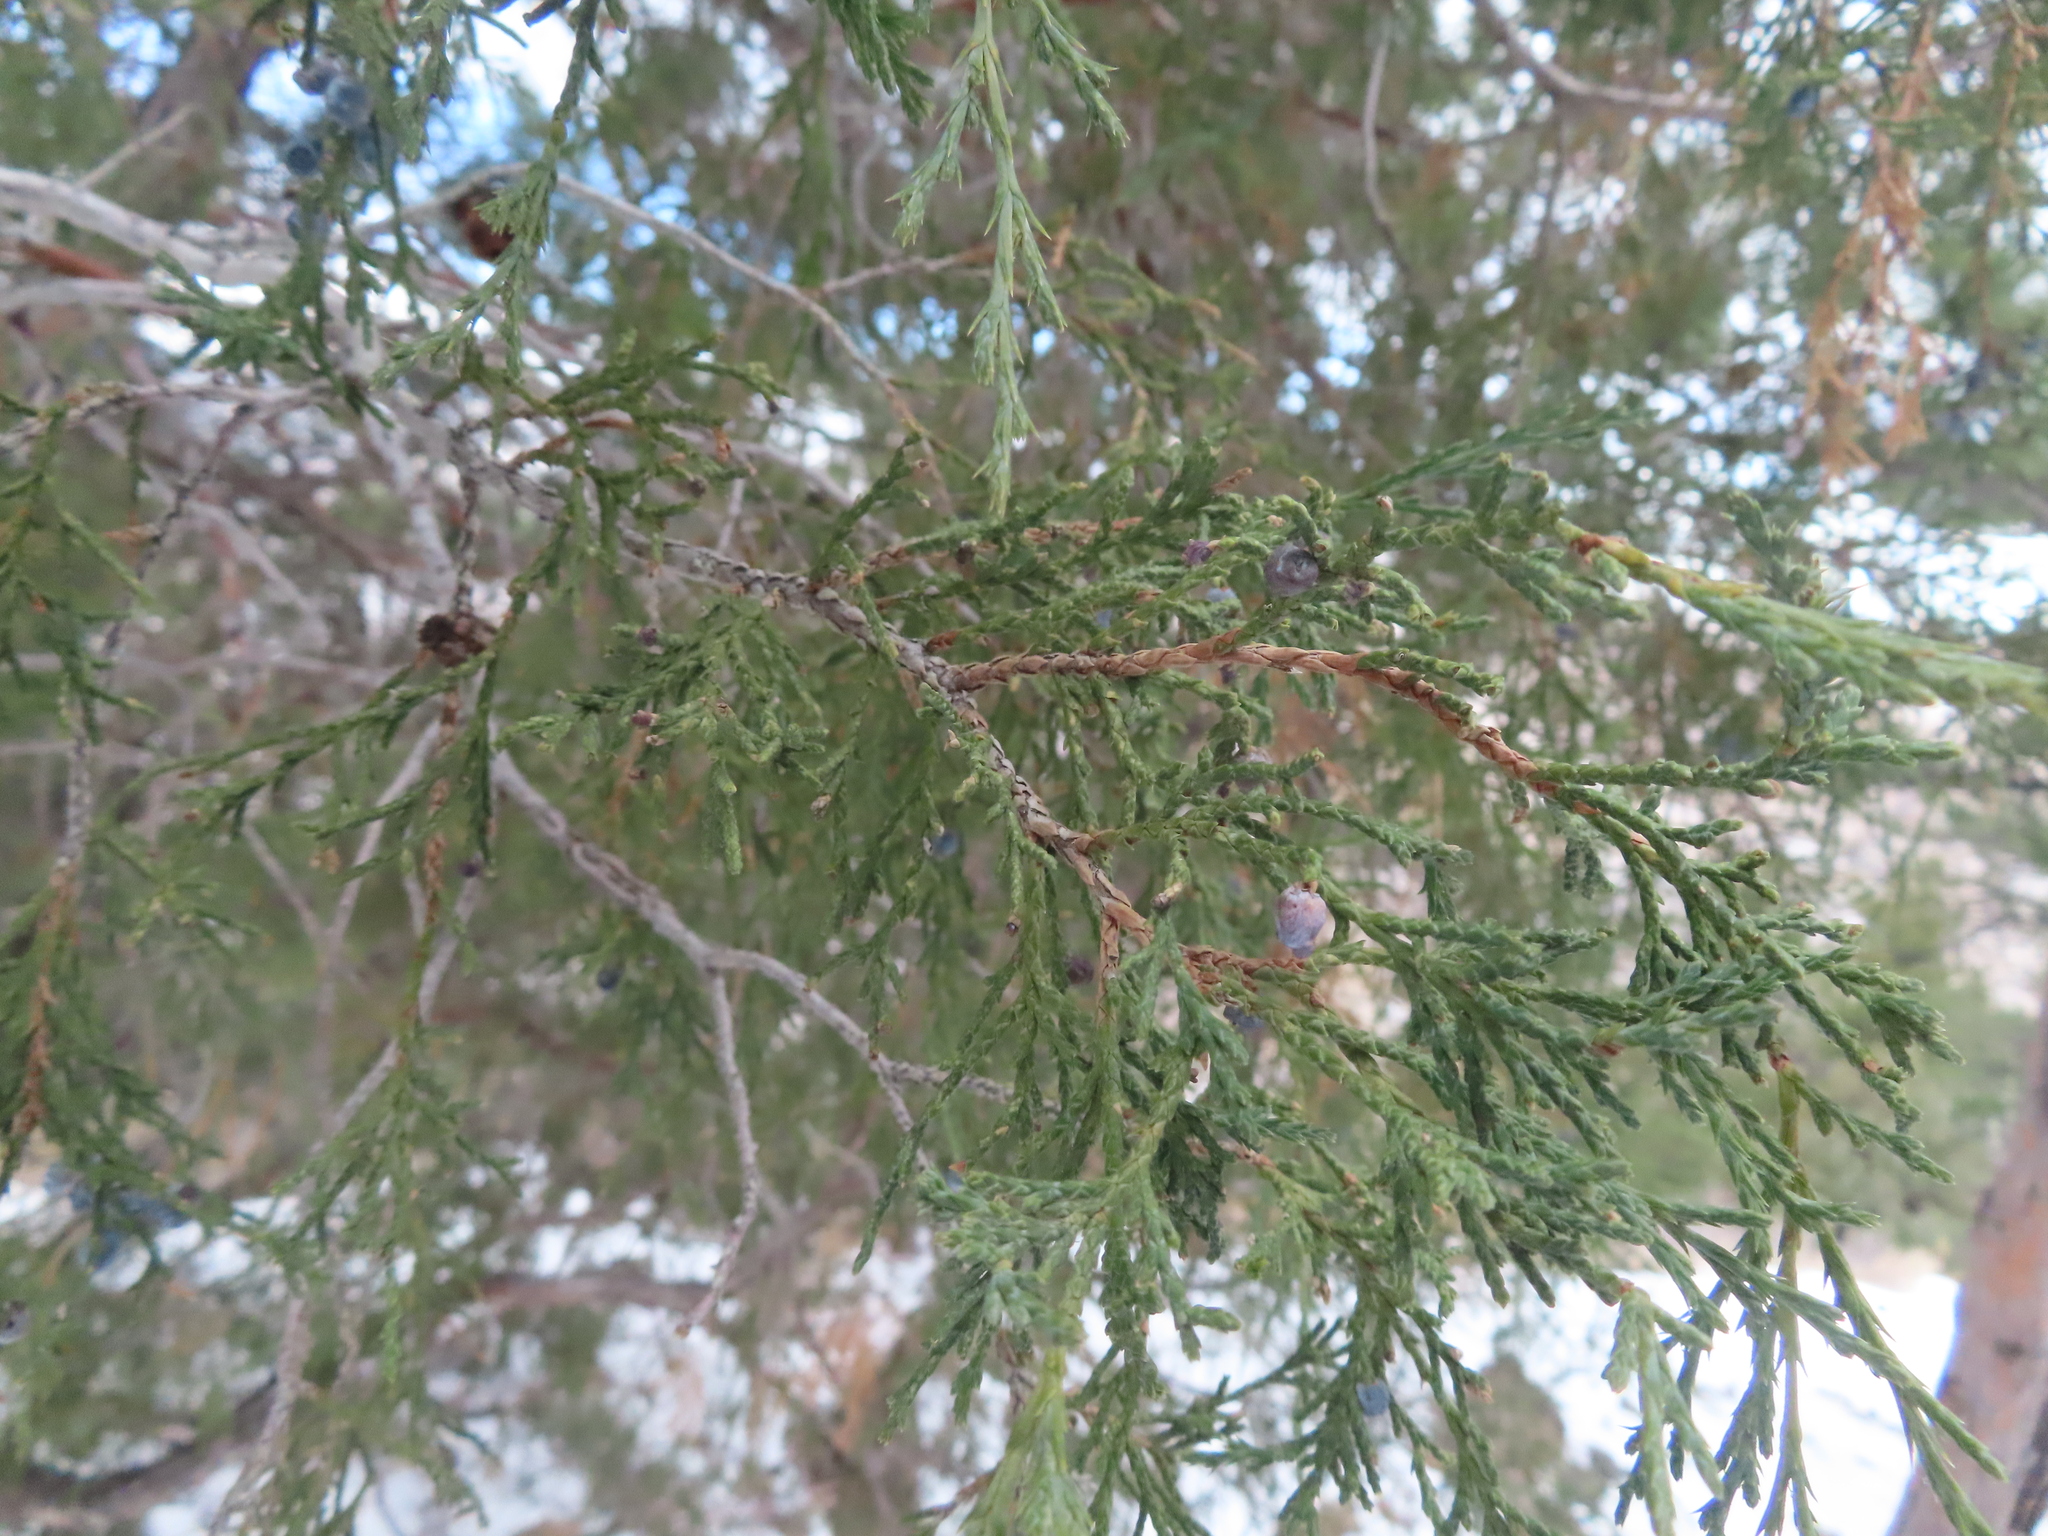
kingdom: Plantae
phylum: Tracheophyta
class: Pinopsida
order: Pinales
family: Cupressaceae
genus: Juniperus
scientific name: Juniperus scopulorum
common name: Rocky mountain juniper
